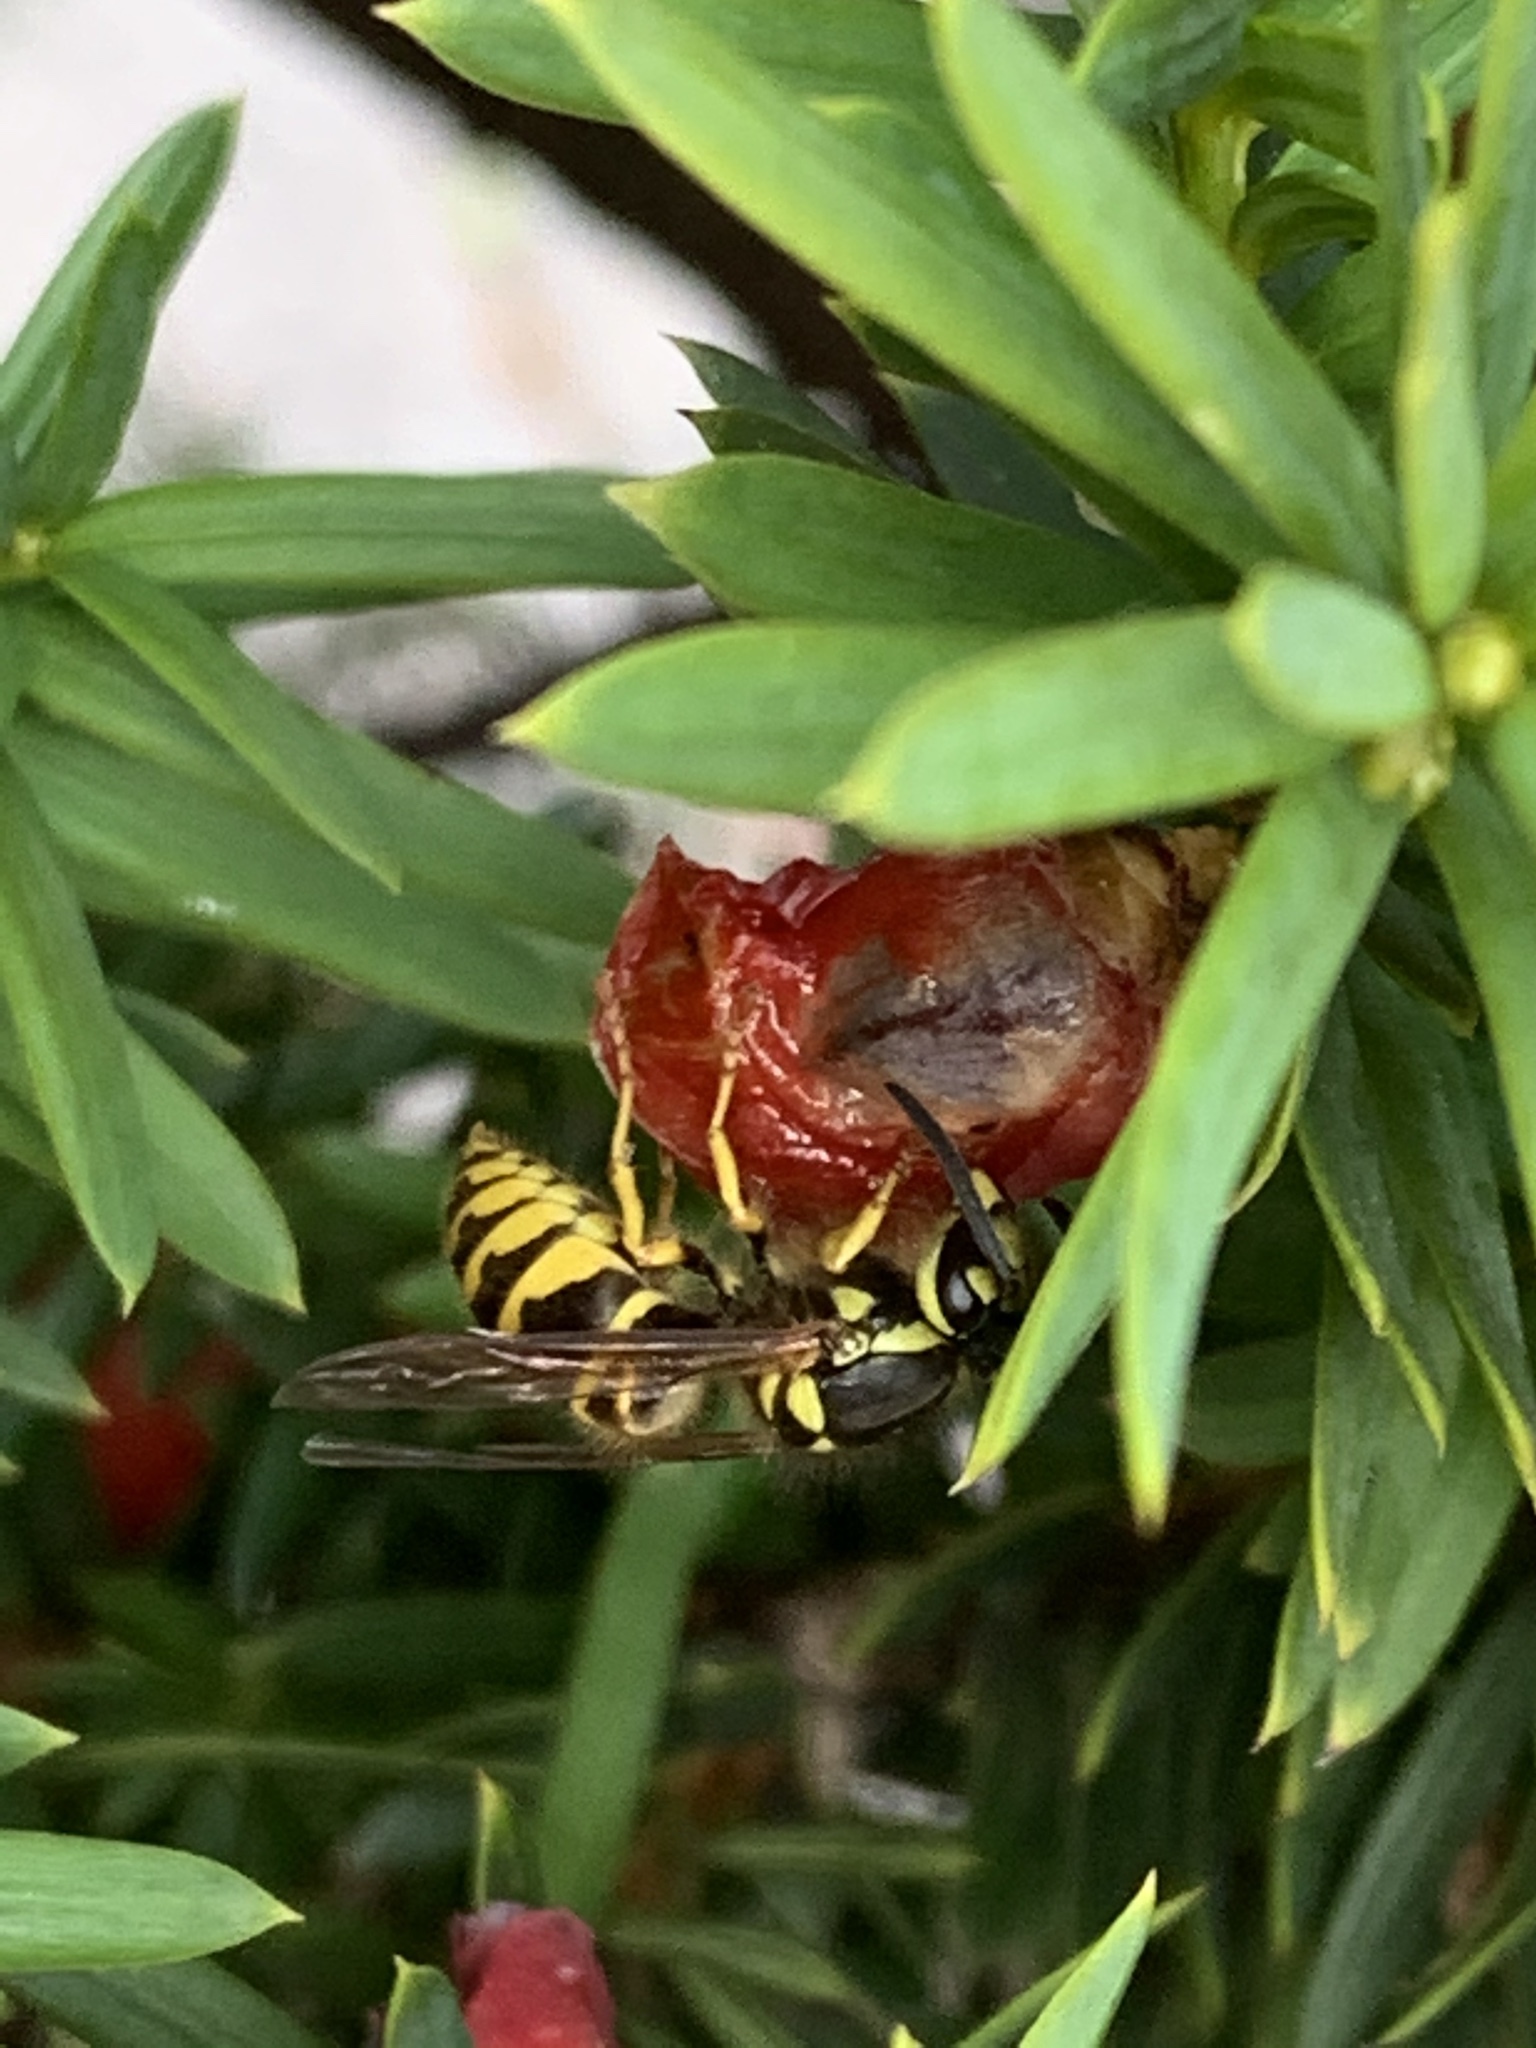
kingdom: Animalia
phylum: Arthropoda
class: Insecta
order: Hymenoptera
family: Vespidae
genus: Vespula
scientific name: Vespula maculifrons
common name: Eastern yellowjacket
